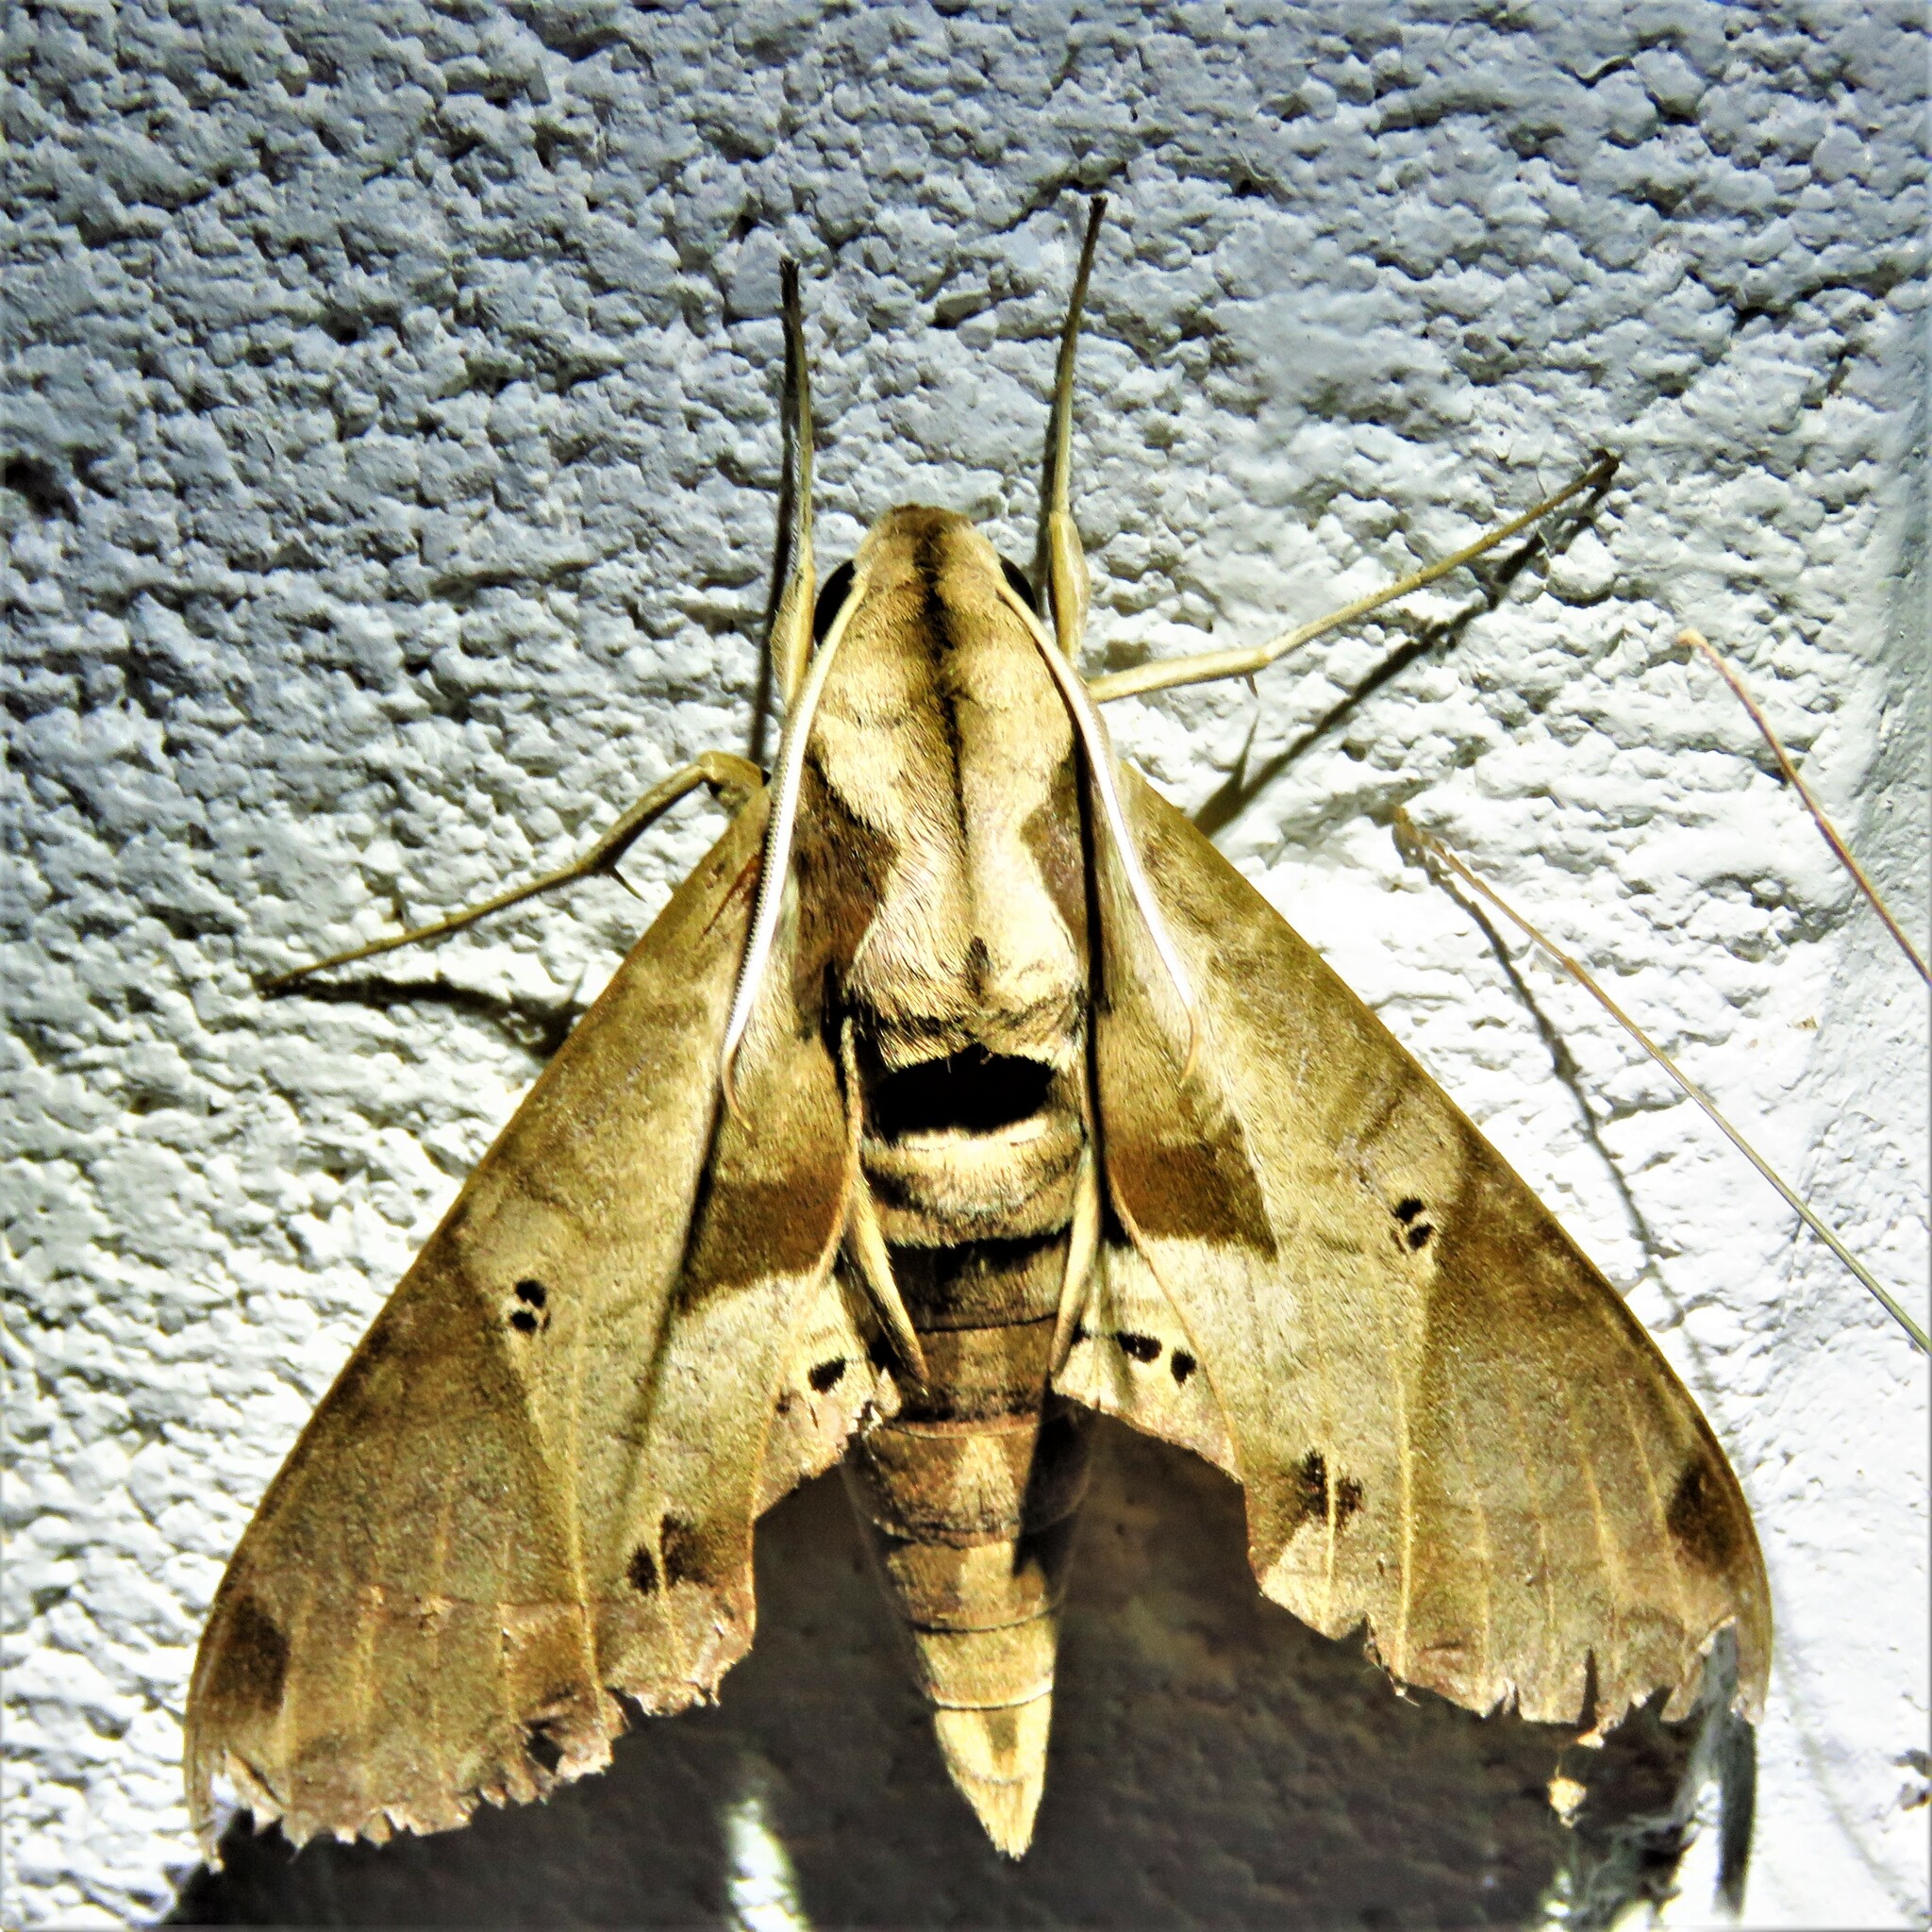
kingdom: Animalia
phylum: Arthropoda
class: Insecta
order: Lepidoptera
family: Sphingidae
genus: Eumorpha
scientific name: Eumorpha satellitia
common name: Satellite sphinx
